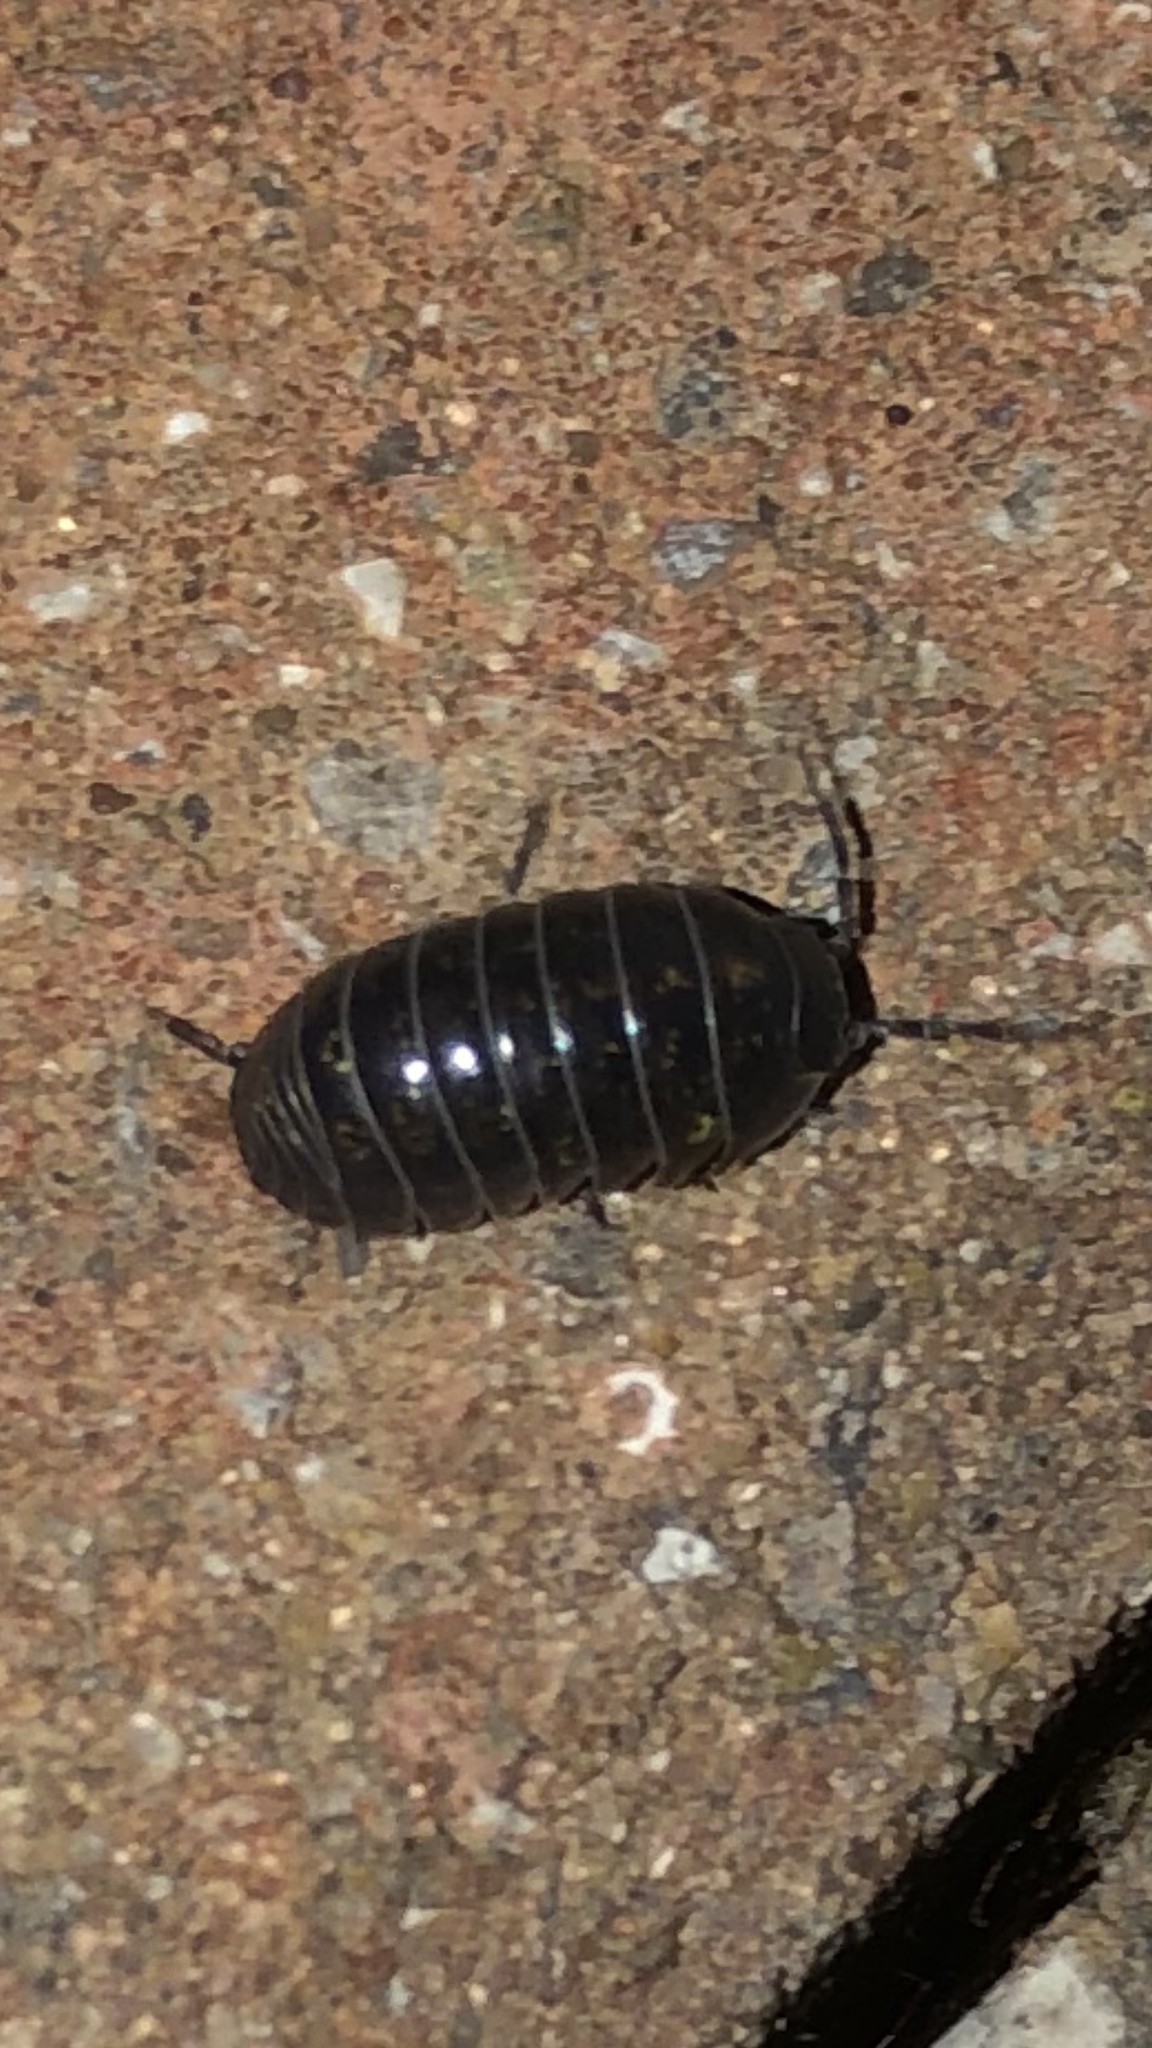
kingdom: Animalia
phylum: Arthropoda
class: Malacostraca
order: Isopoda
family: Armadillidiidae
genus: Armadillidium
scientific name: Armadillidium vulgare
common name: Common pill woodlouse
